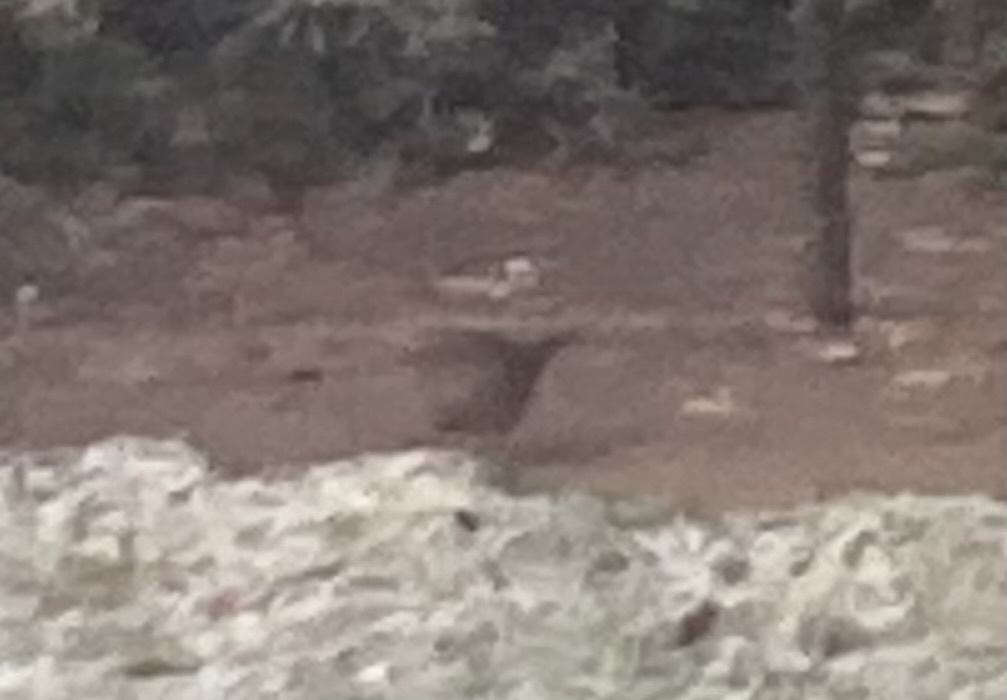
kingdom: Animalia
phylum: Chordata
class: Aves
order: Passeriformes
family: Prunellidae
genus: Prunella
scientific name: Prunella modularis
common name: Dunnock
